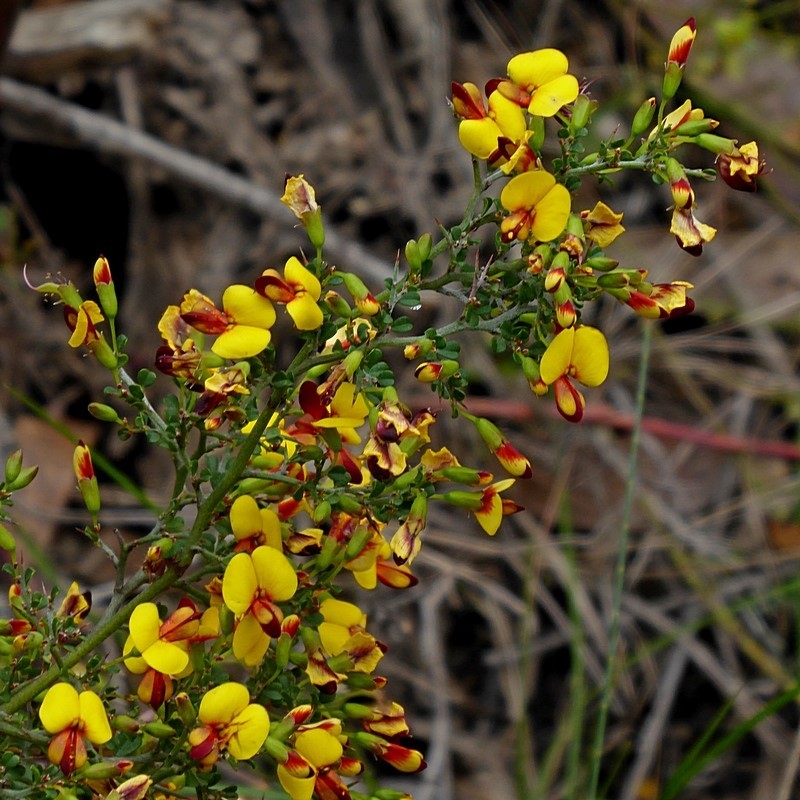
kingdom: Plantae
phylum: Tracheophyta
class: Magnoliopsida
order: Fabales
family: Fabaceae
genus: Bossiaea
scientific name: Bossiaea obcordata
